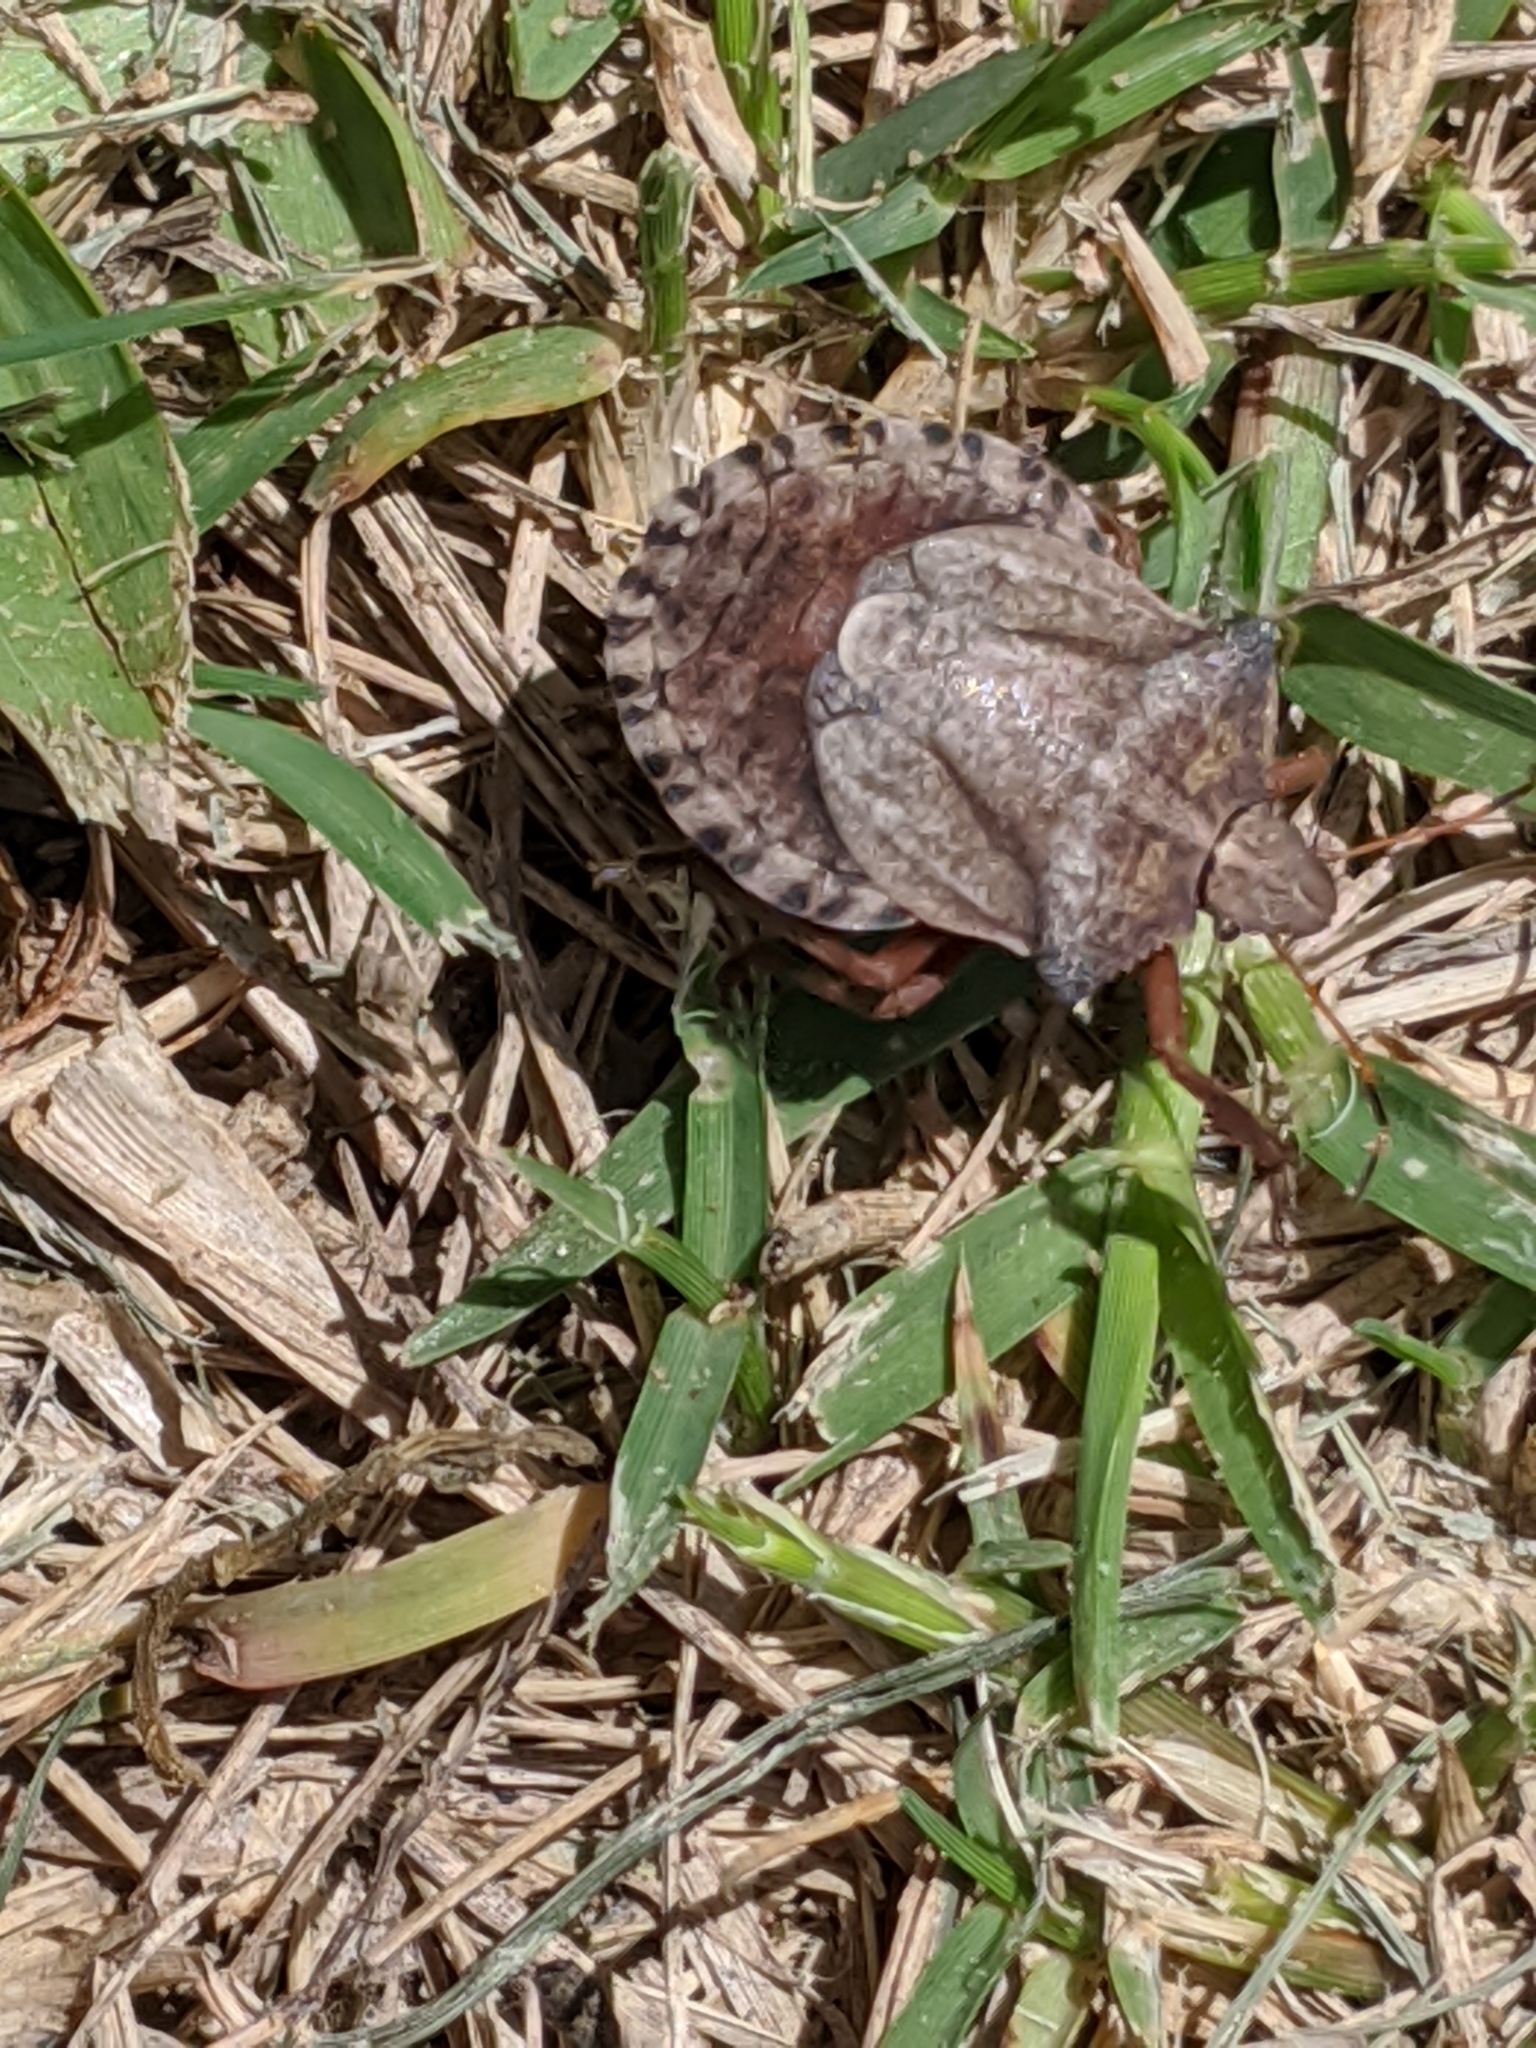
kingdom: Animalia
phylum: Arthropoda
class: Insecta
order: Hemiptera
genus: Eurus
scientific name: Eurus
